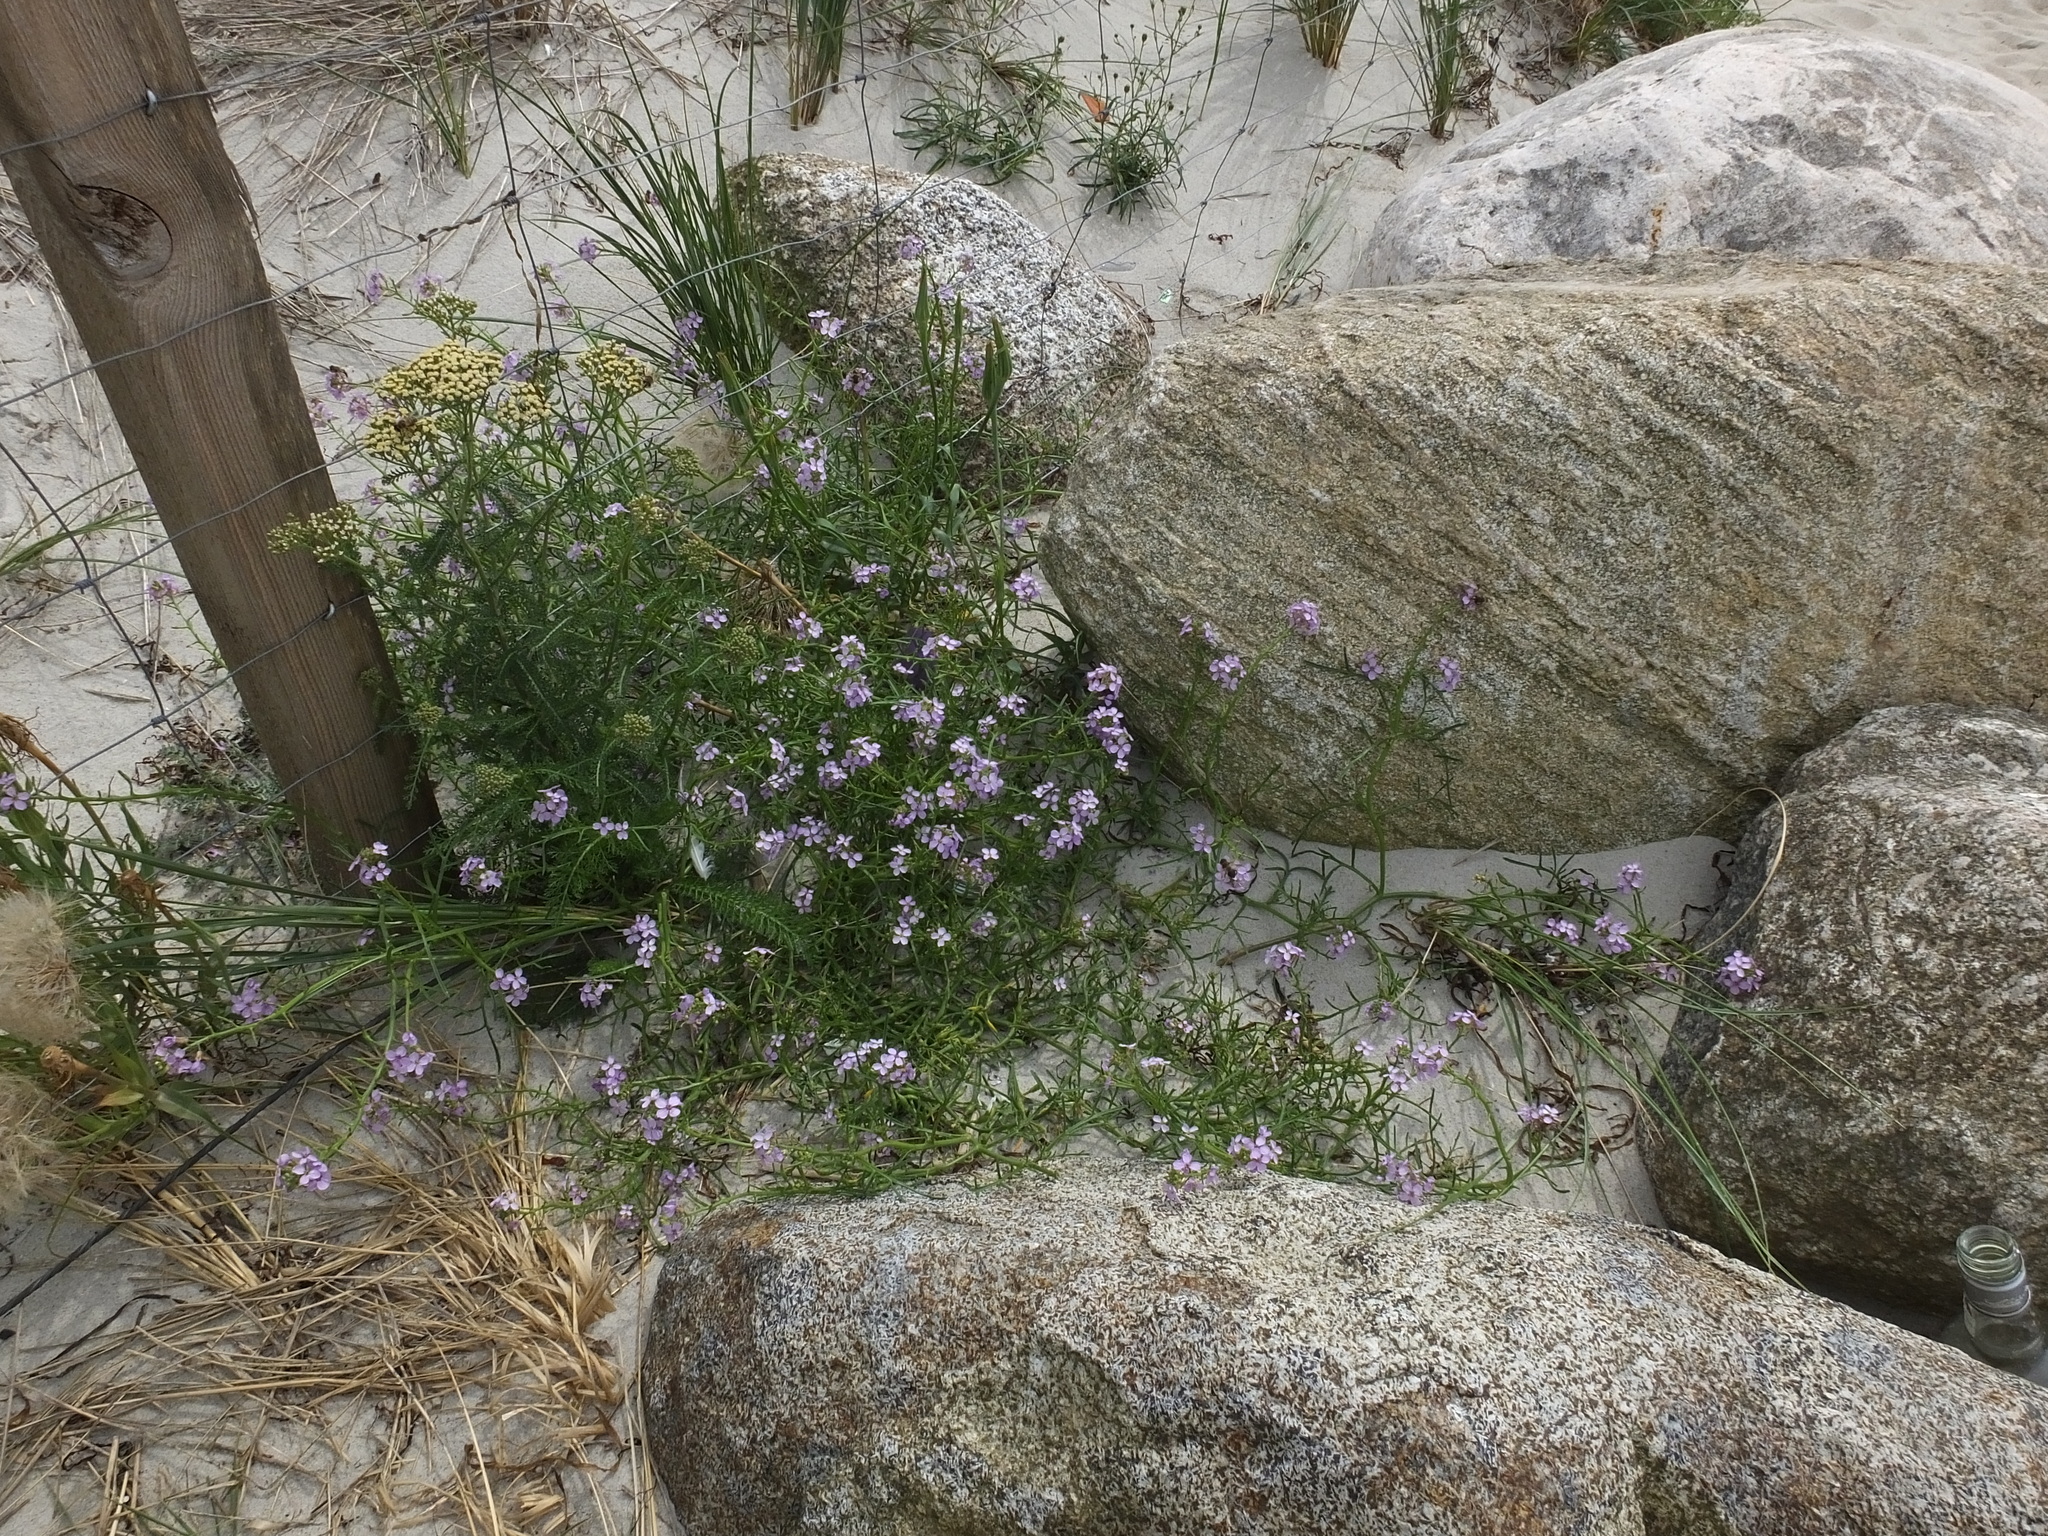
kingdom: Plantae
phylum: Tracheophyta
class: Magnoliopsida
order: Brassicales
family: Brassicaceae
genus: Cakile
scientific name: Cakile maritima
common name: Sea rocket
